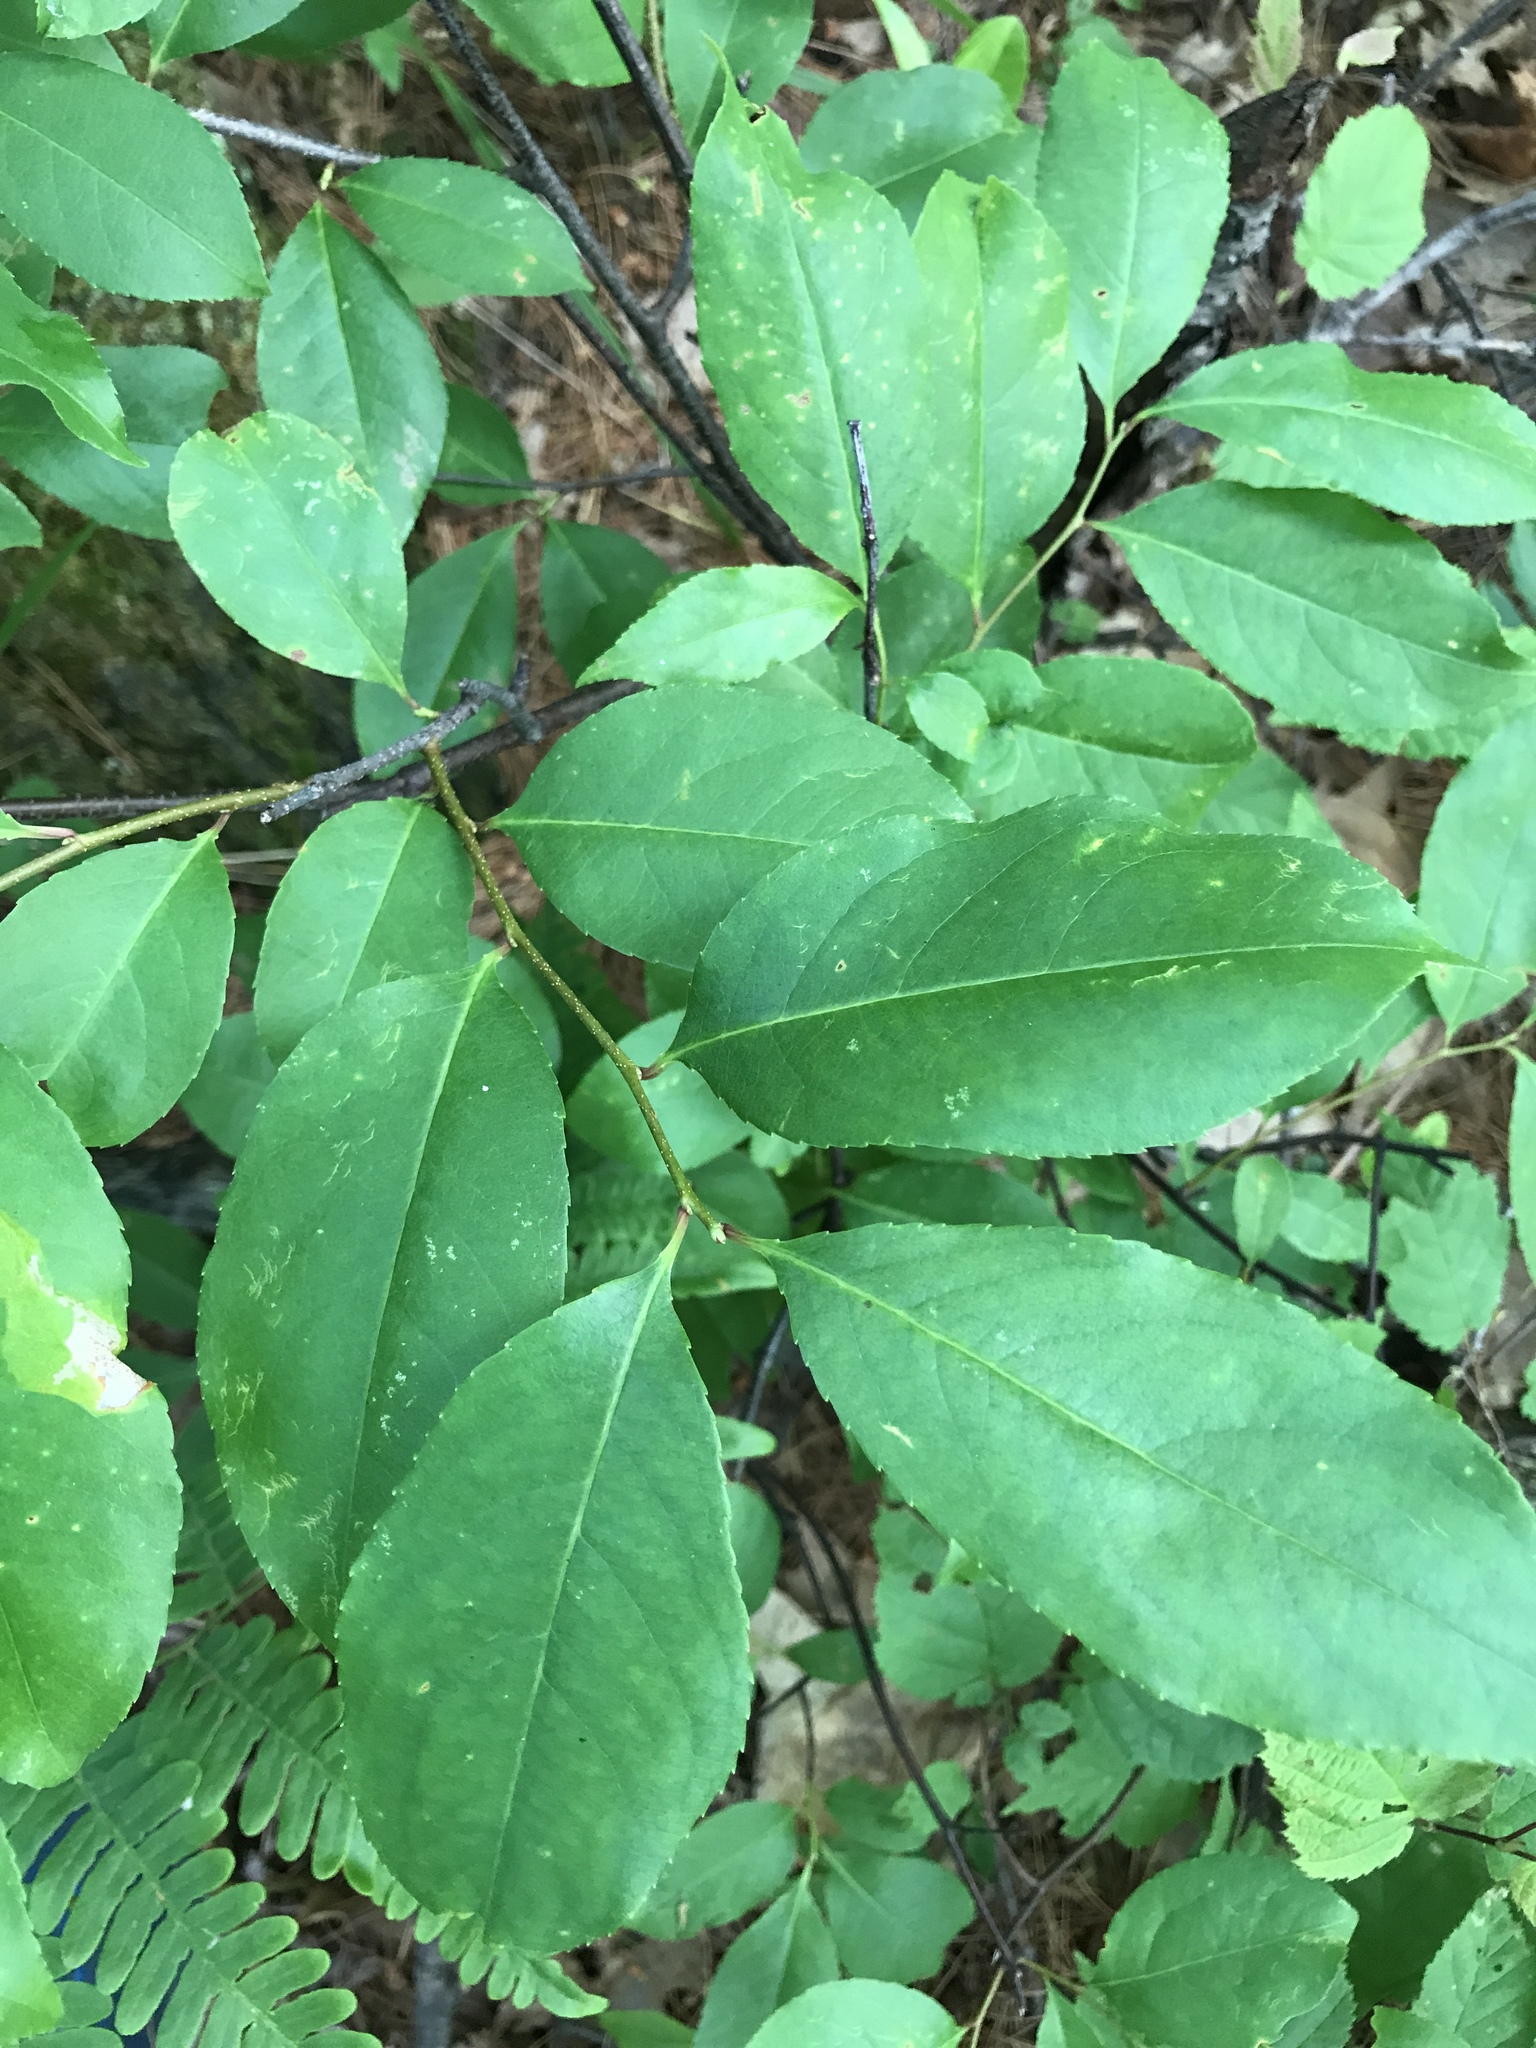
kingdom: Plantae
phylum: Tracheophyta
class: Magnoliopsida
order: Rosales
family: Rosaceae
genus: Prunus
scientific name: Prunus serotina
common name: Black cherry
